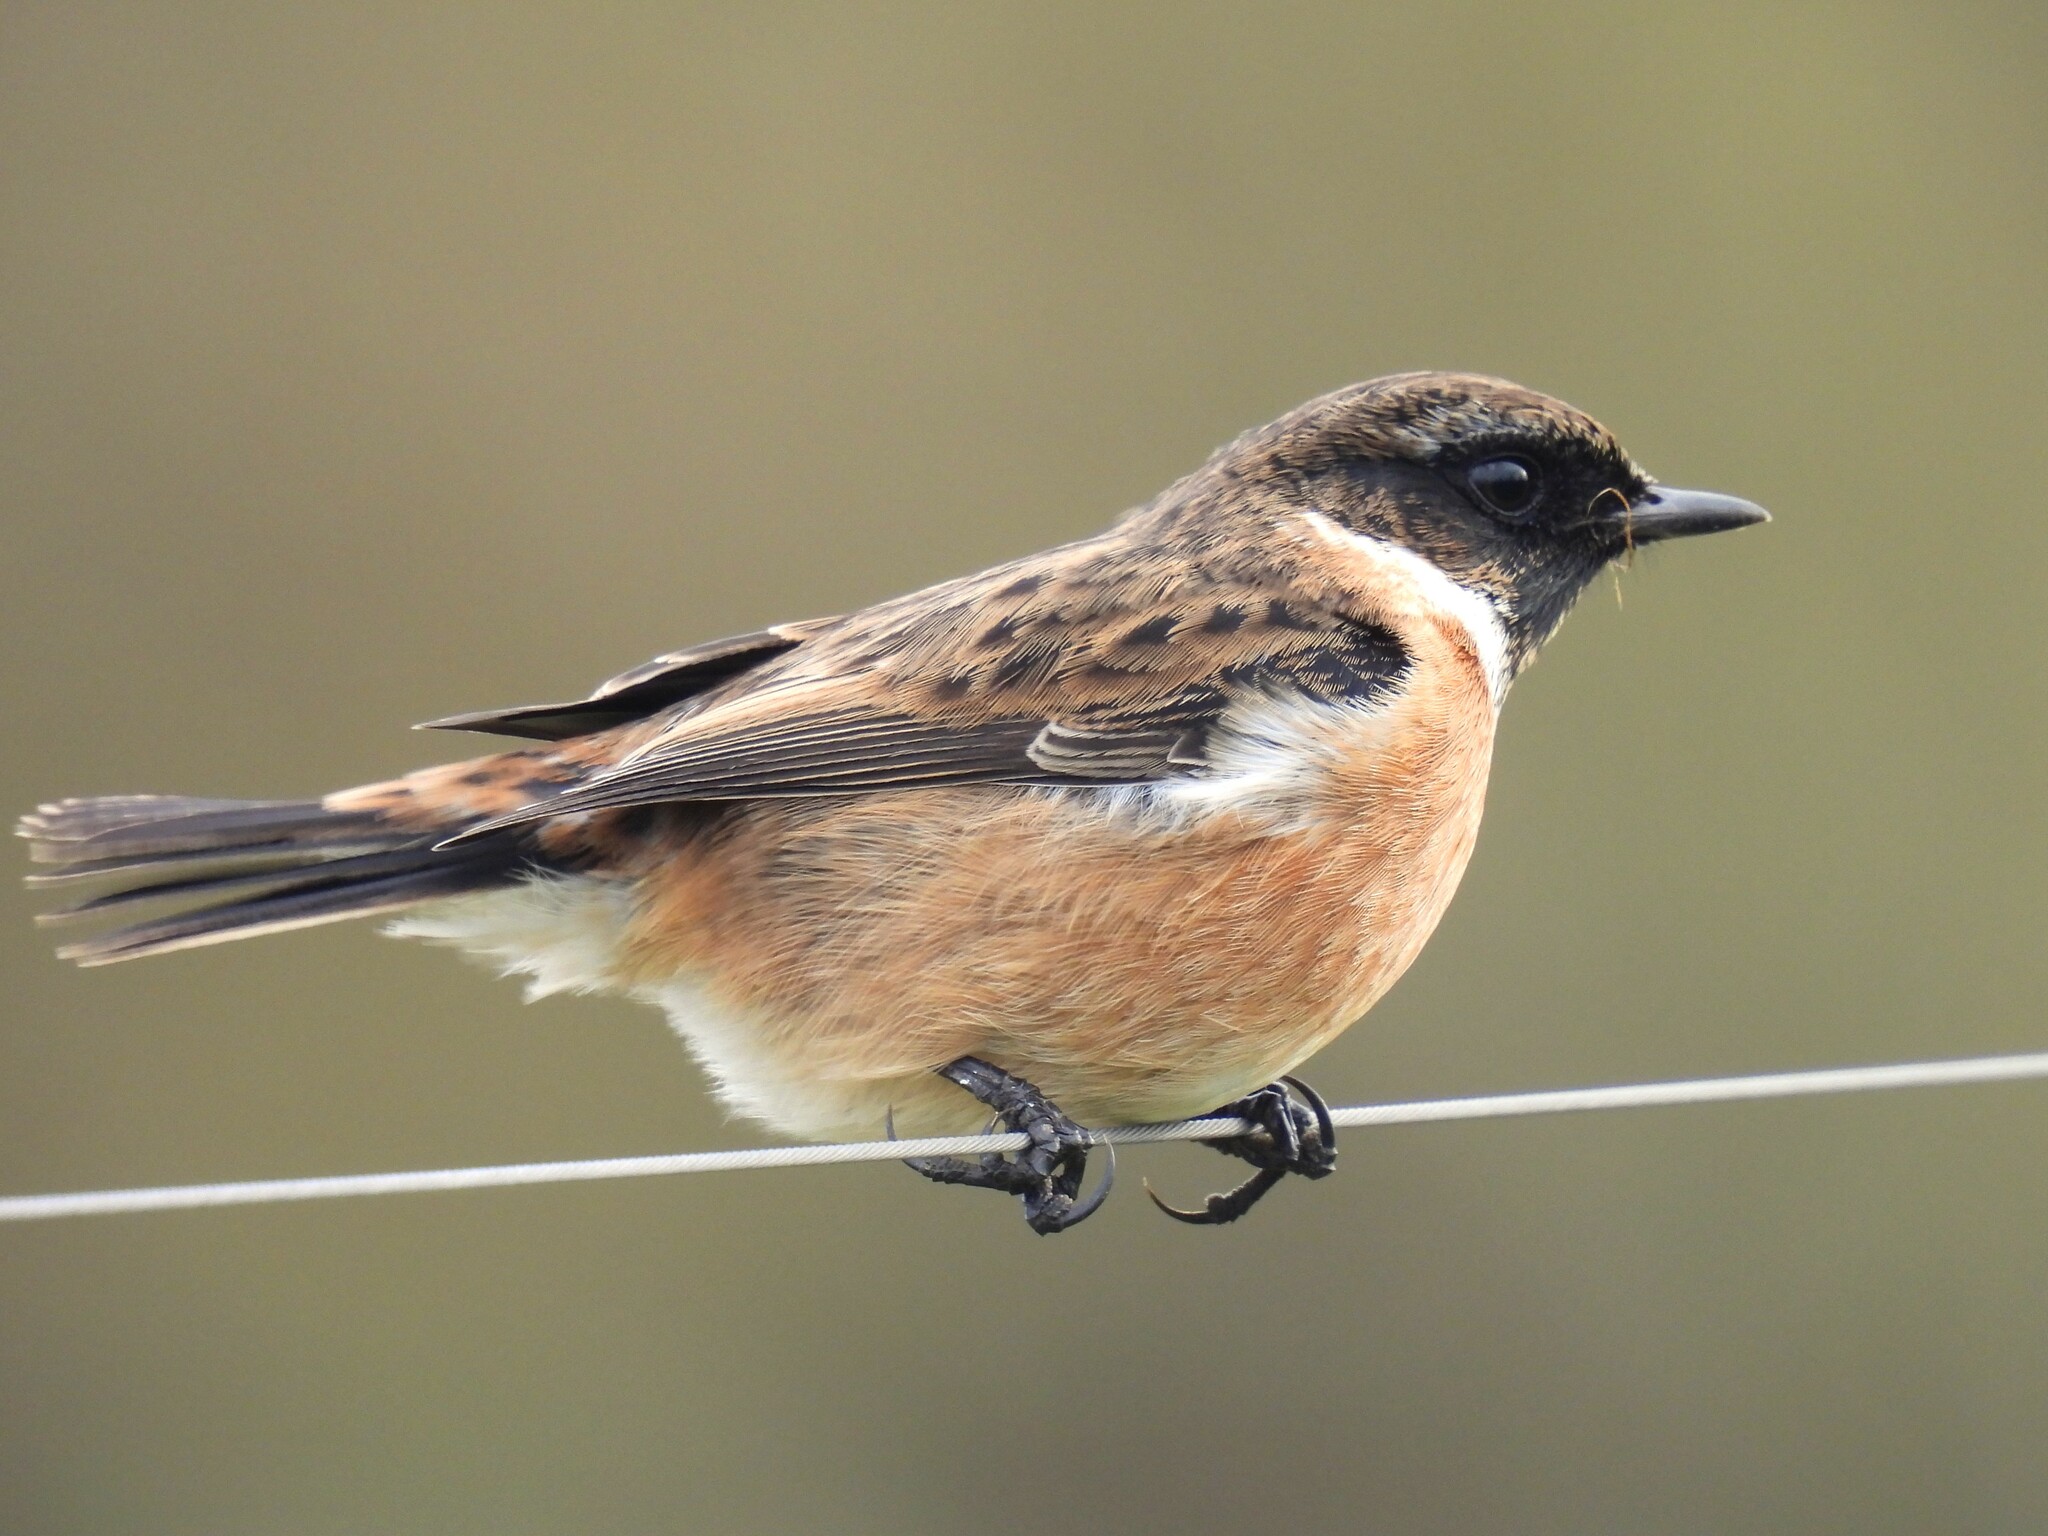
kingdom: Animalia
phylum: Chordata
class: Aves
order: Passeriformes
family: Muscicapidae
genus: Saxicola
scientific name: Saxicola rubicola
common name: European stonechat
